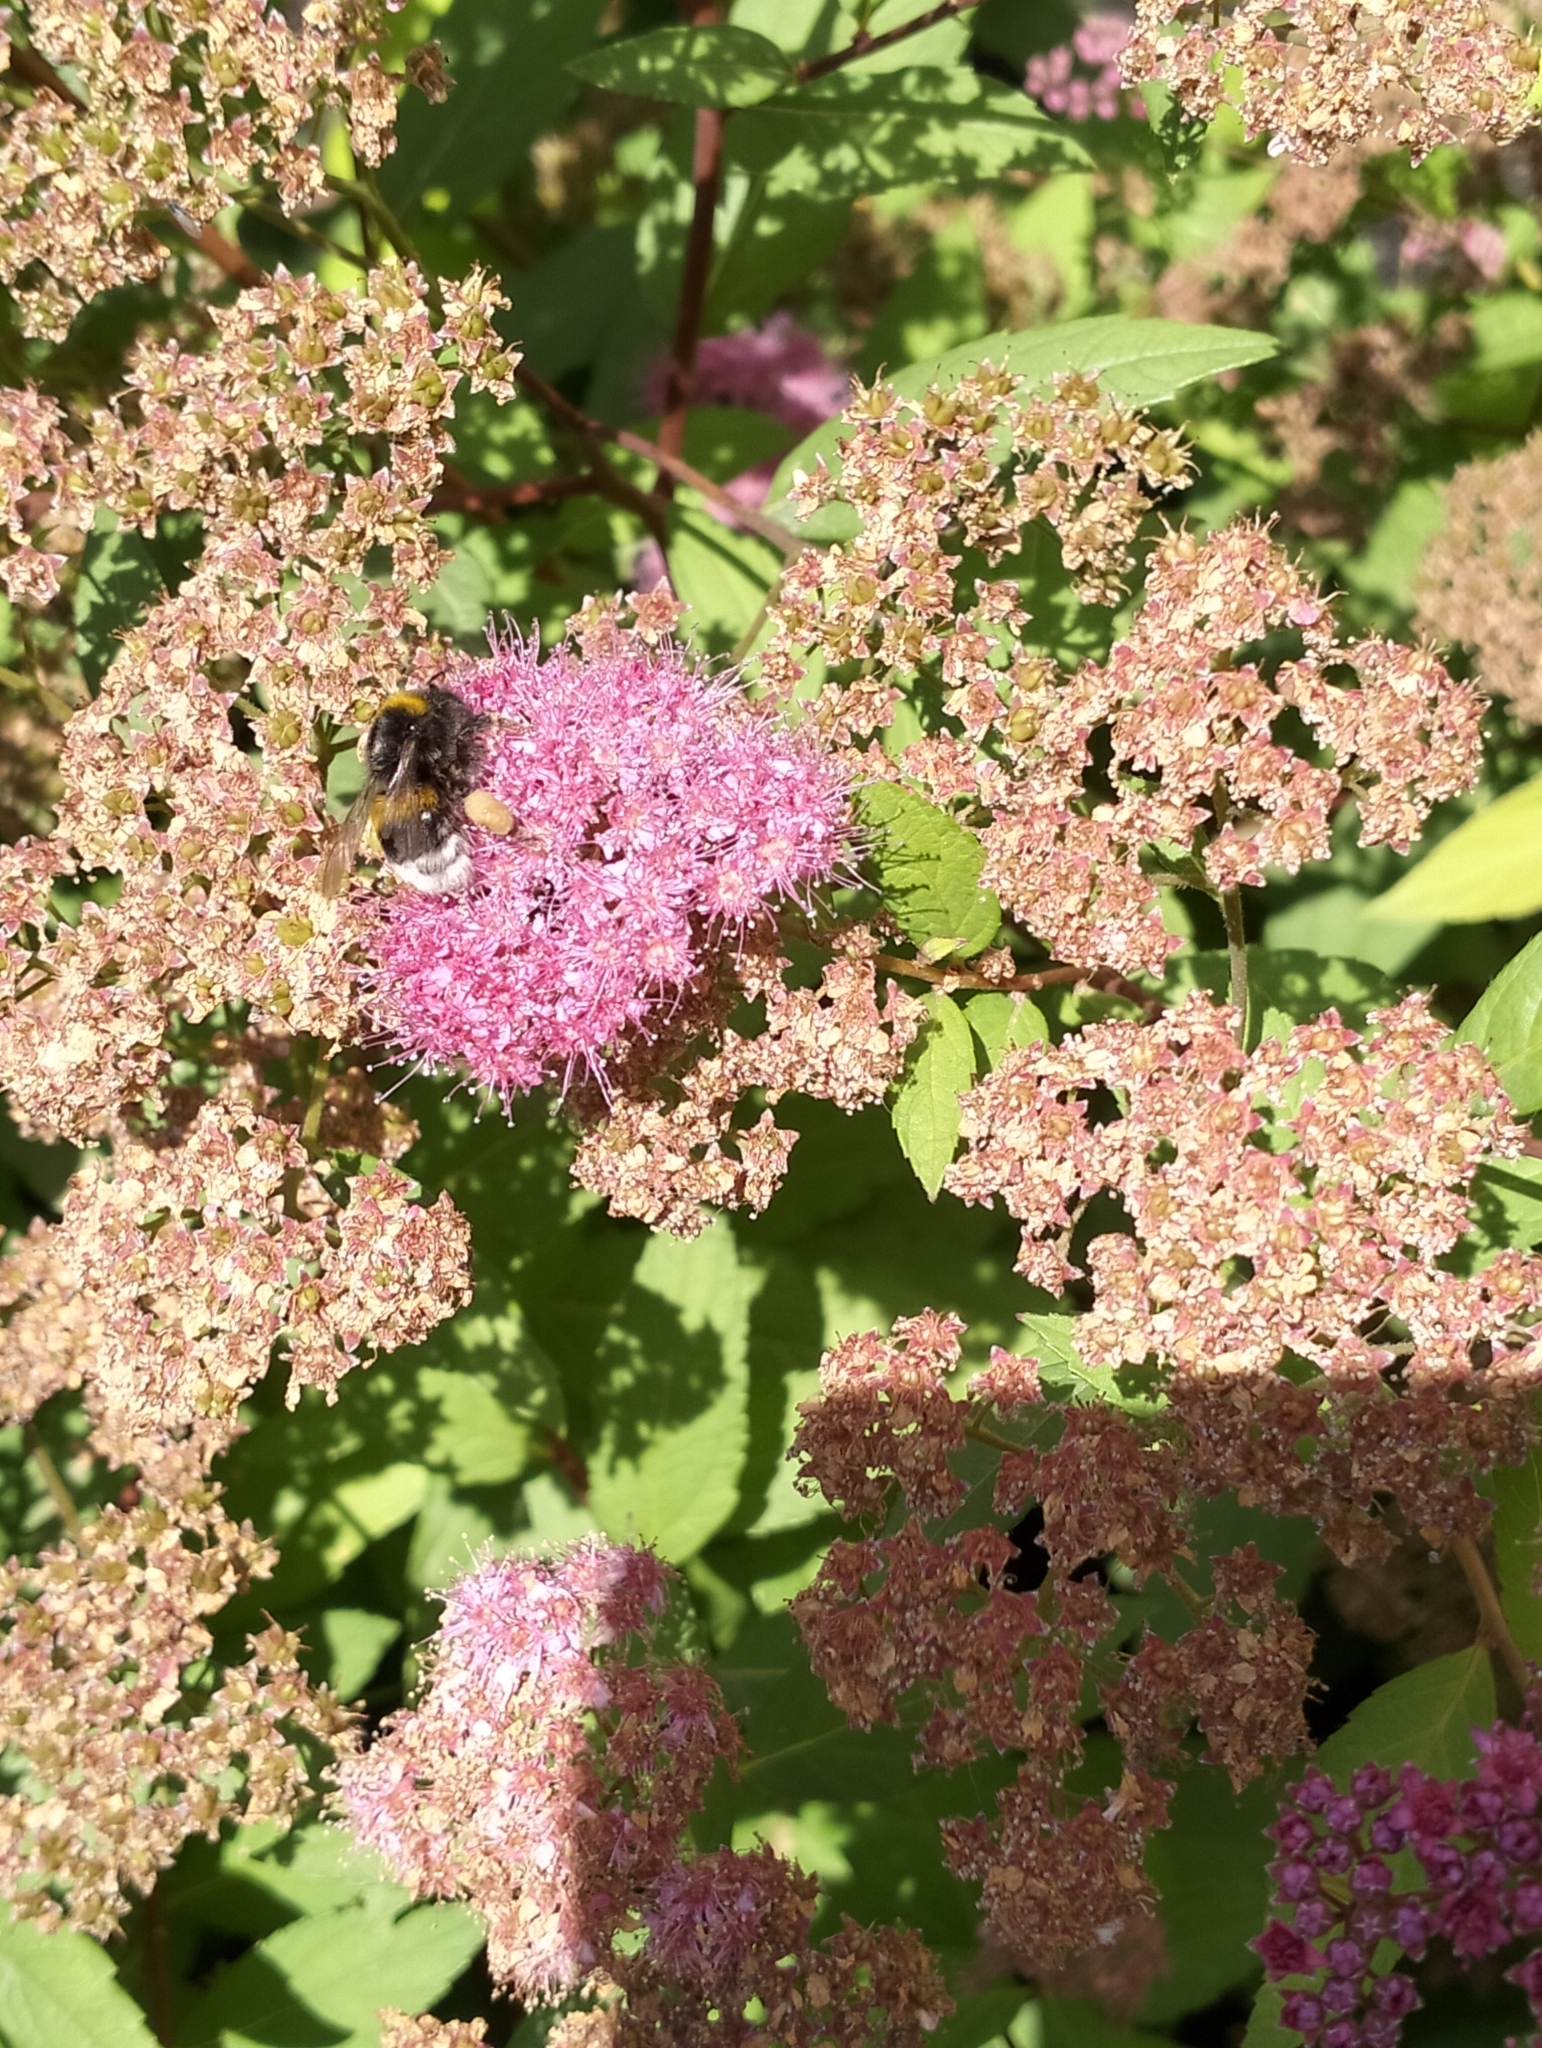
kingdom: Animalia
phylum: Arthropoda
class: Insecta
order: Hymenoptera
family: Apidae
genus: Bombus
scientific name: Bombus
